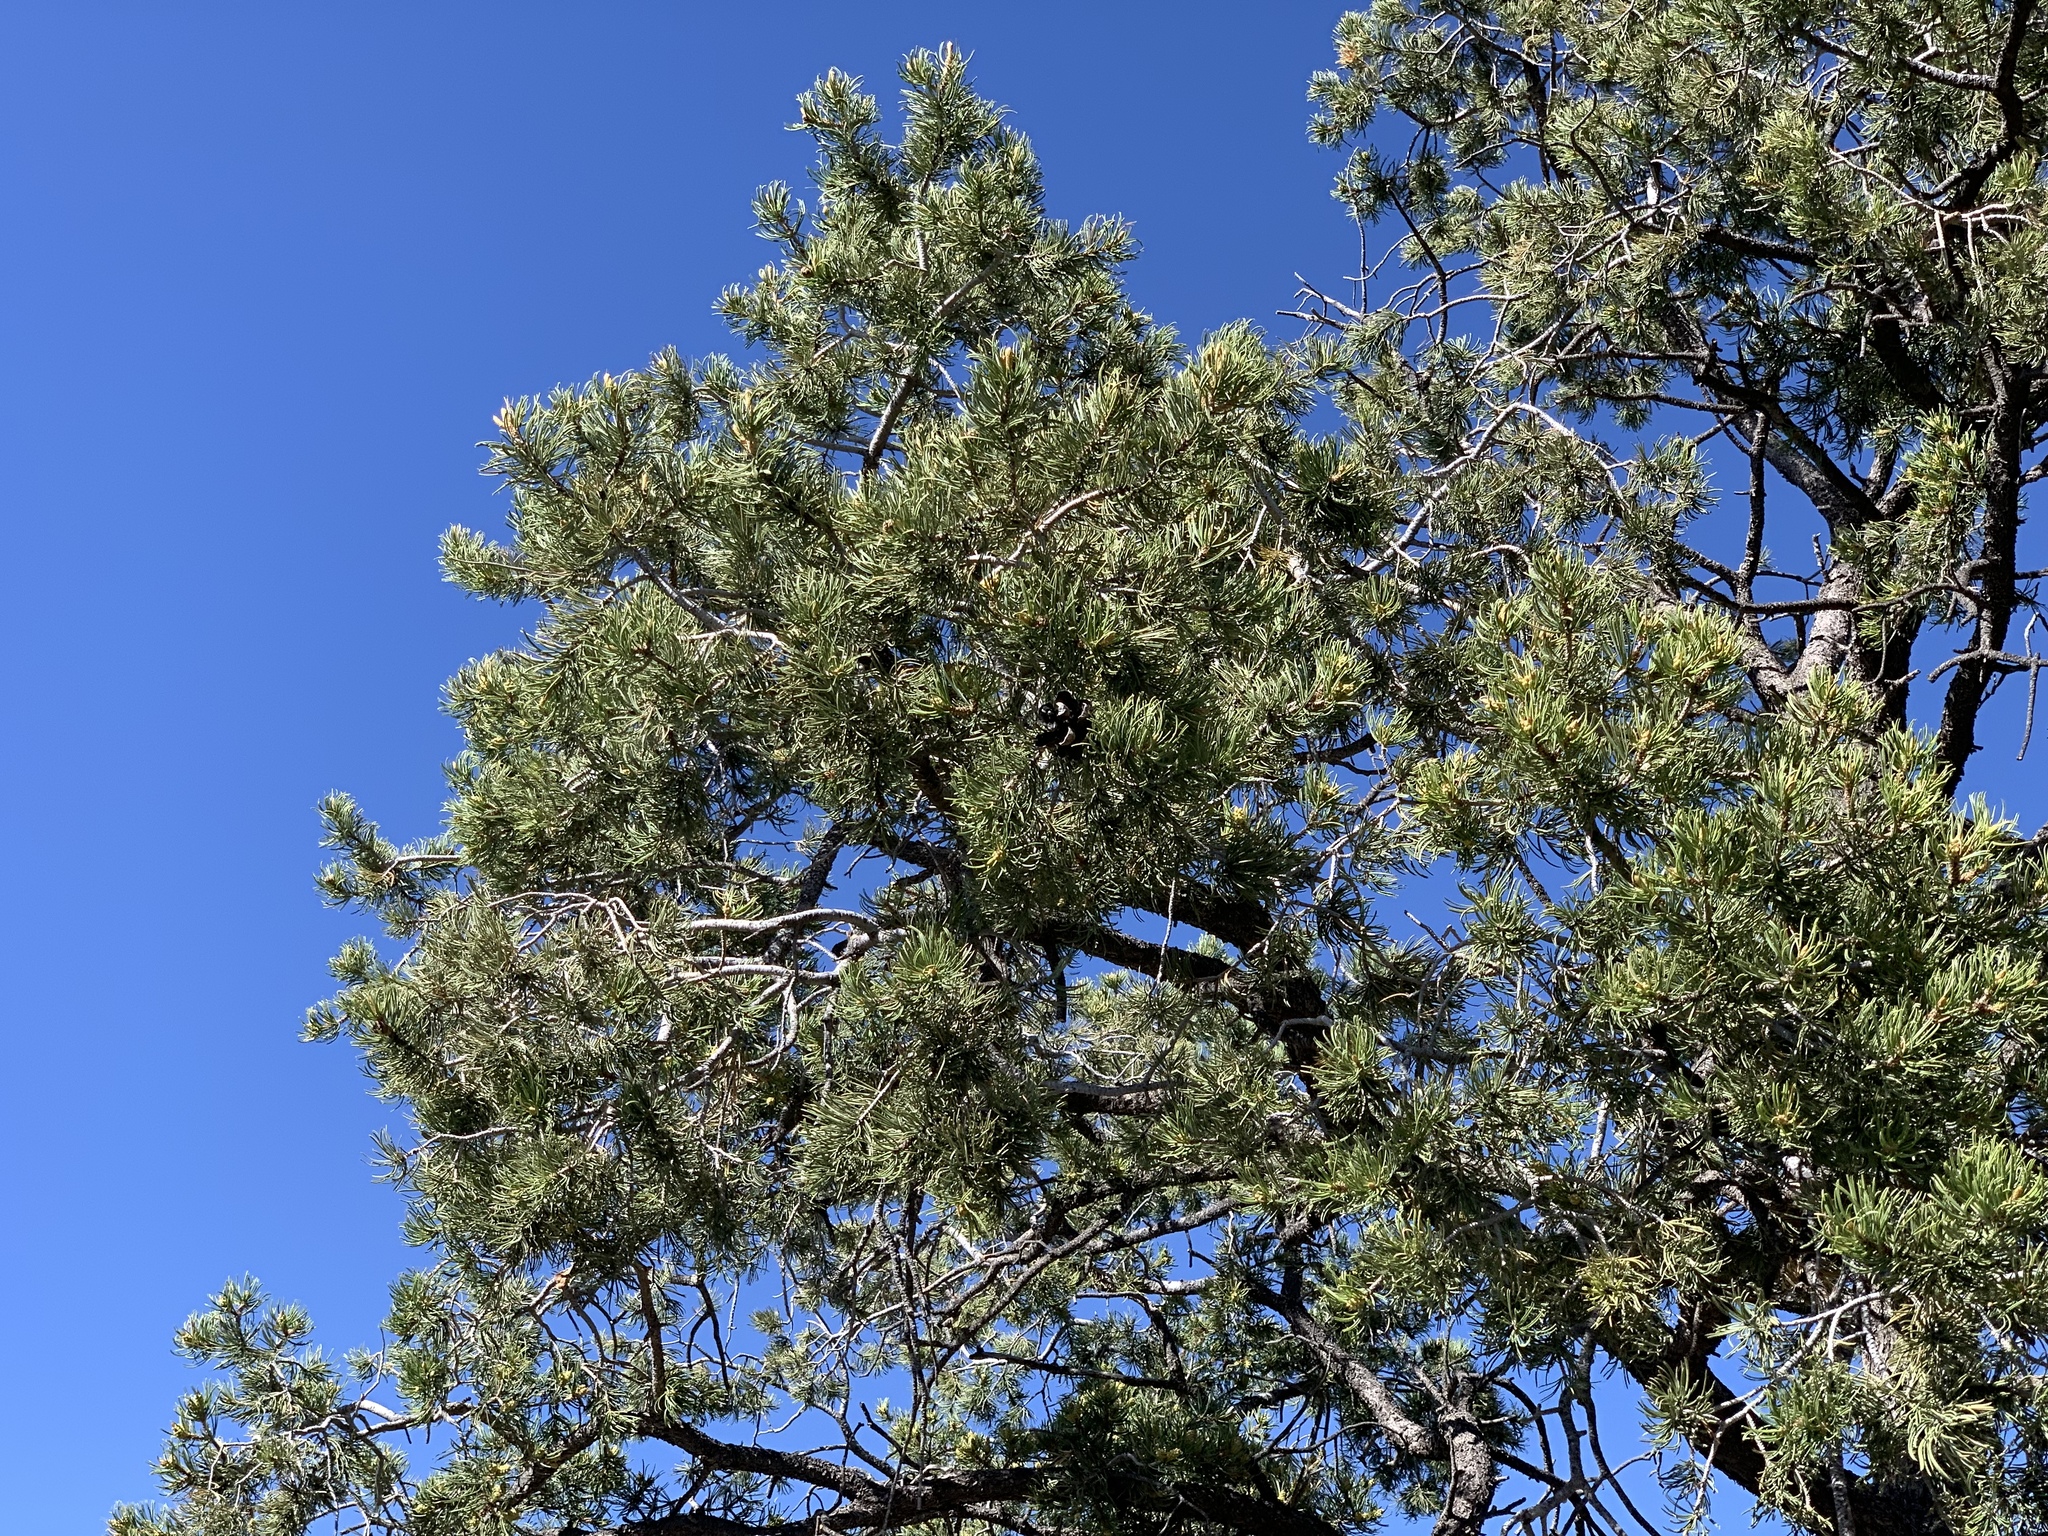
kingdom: Plantae
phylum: Tracheophyta
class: Pinopsida
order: Pinales
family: Pinaceae
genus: Pinus
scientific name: Pinus edulis
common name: Colorado pinyon
